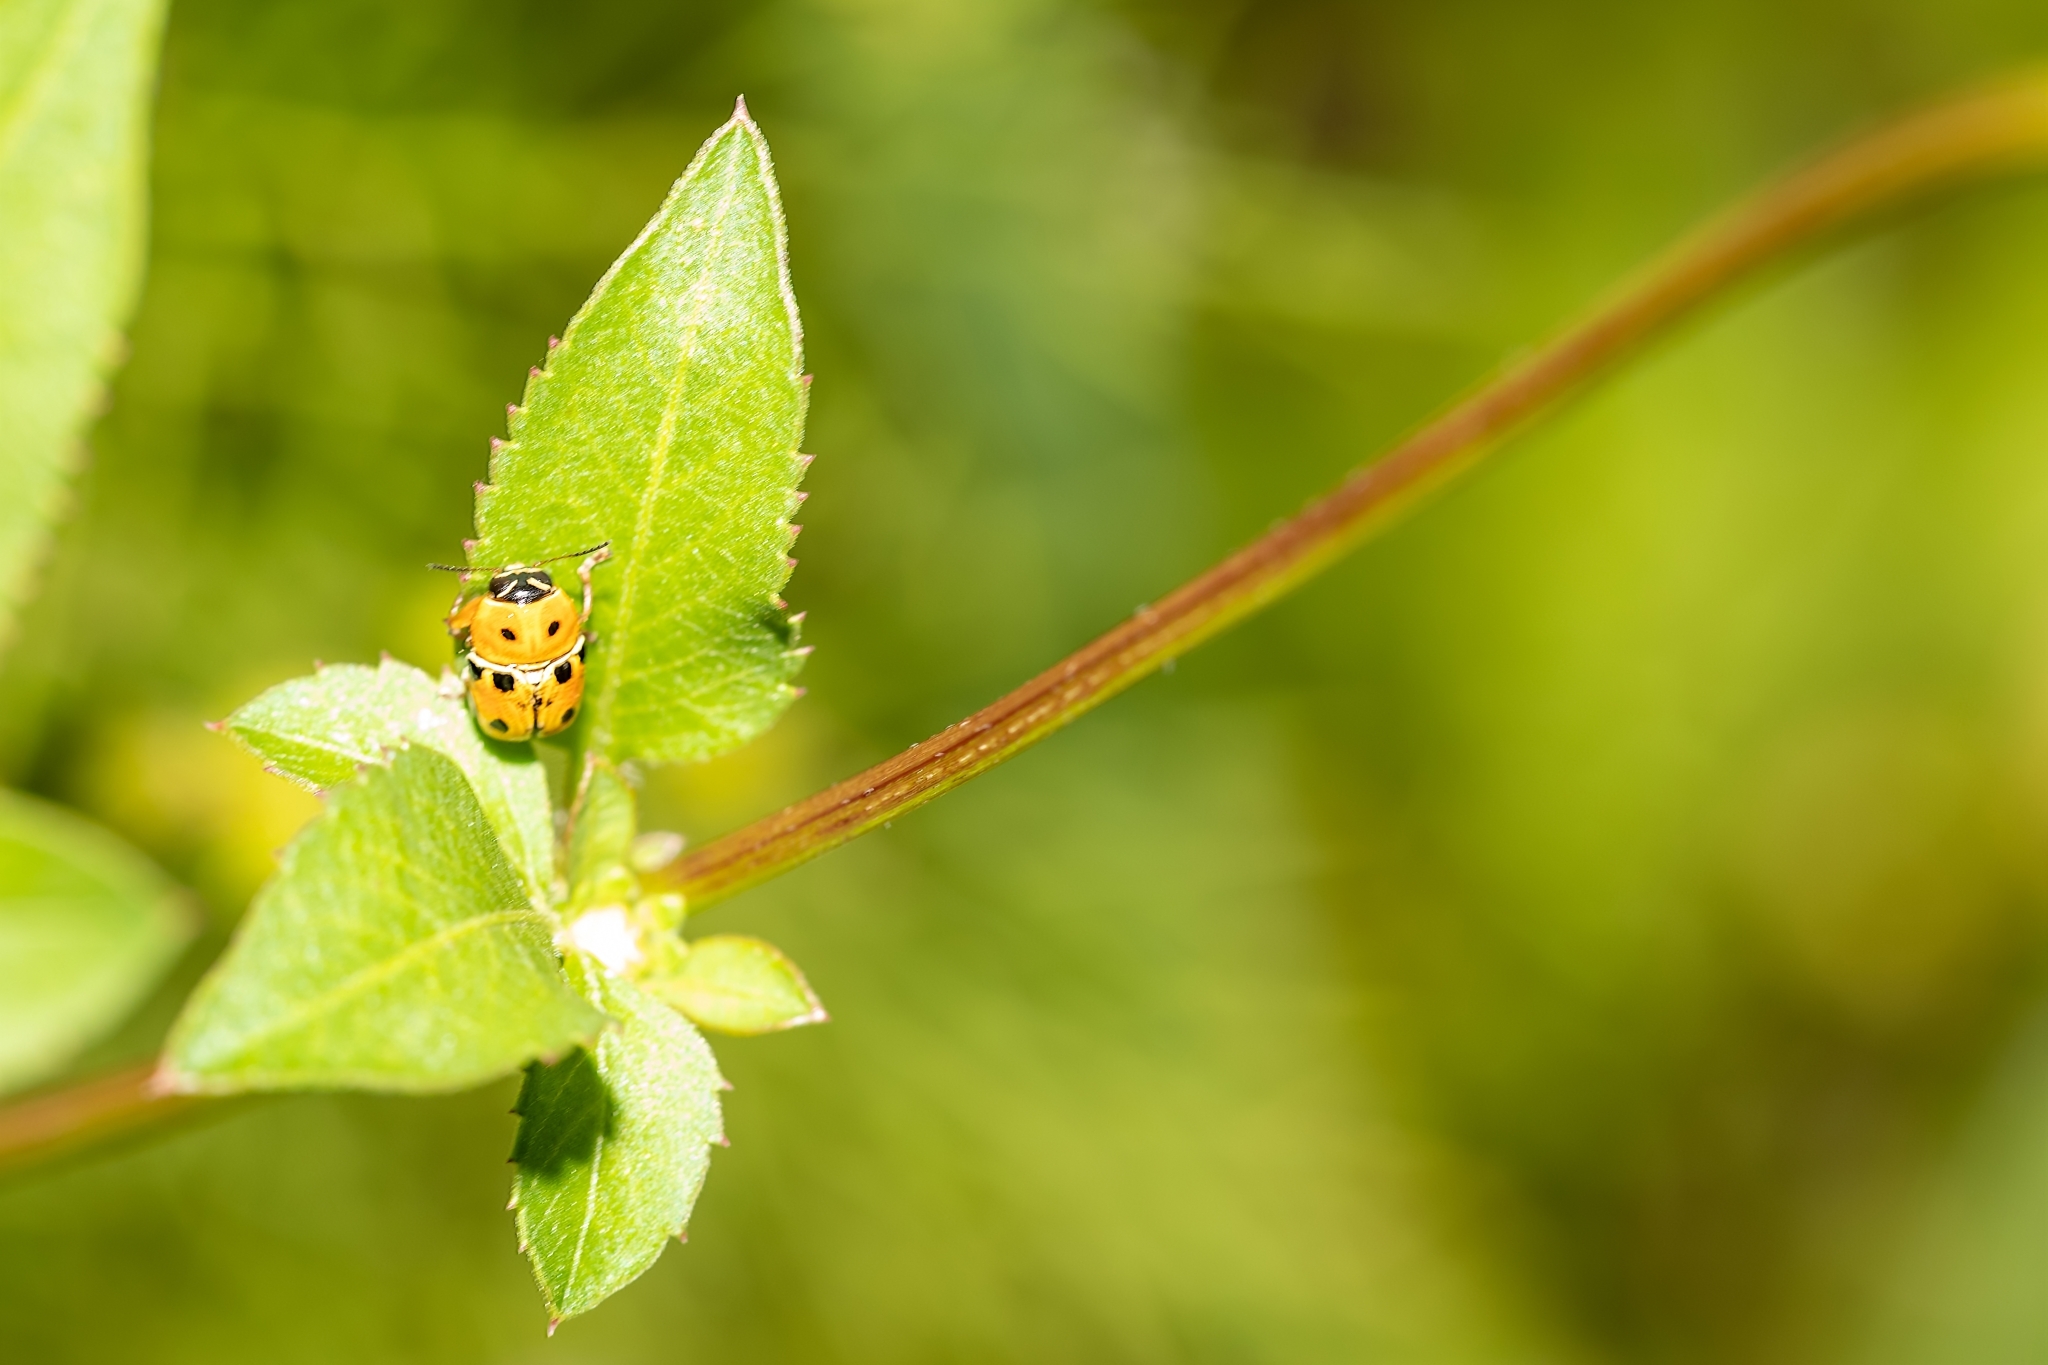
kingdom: Animalia
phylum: Arthropoda
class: Insecta
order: Coleoptera
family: Chrysomelidae
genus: Griburius
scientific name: Griburius larvatus
